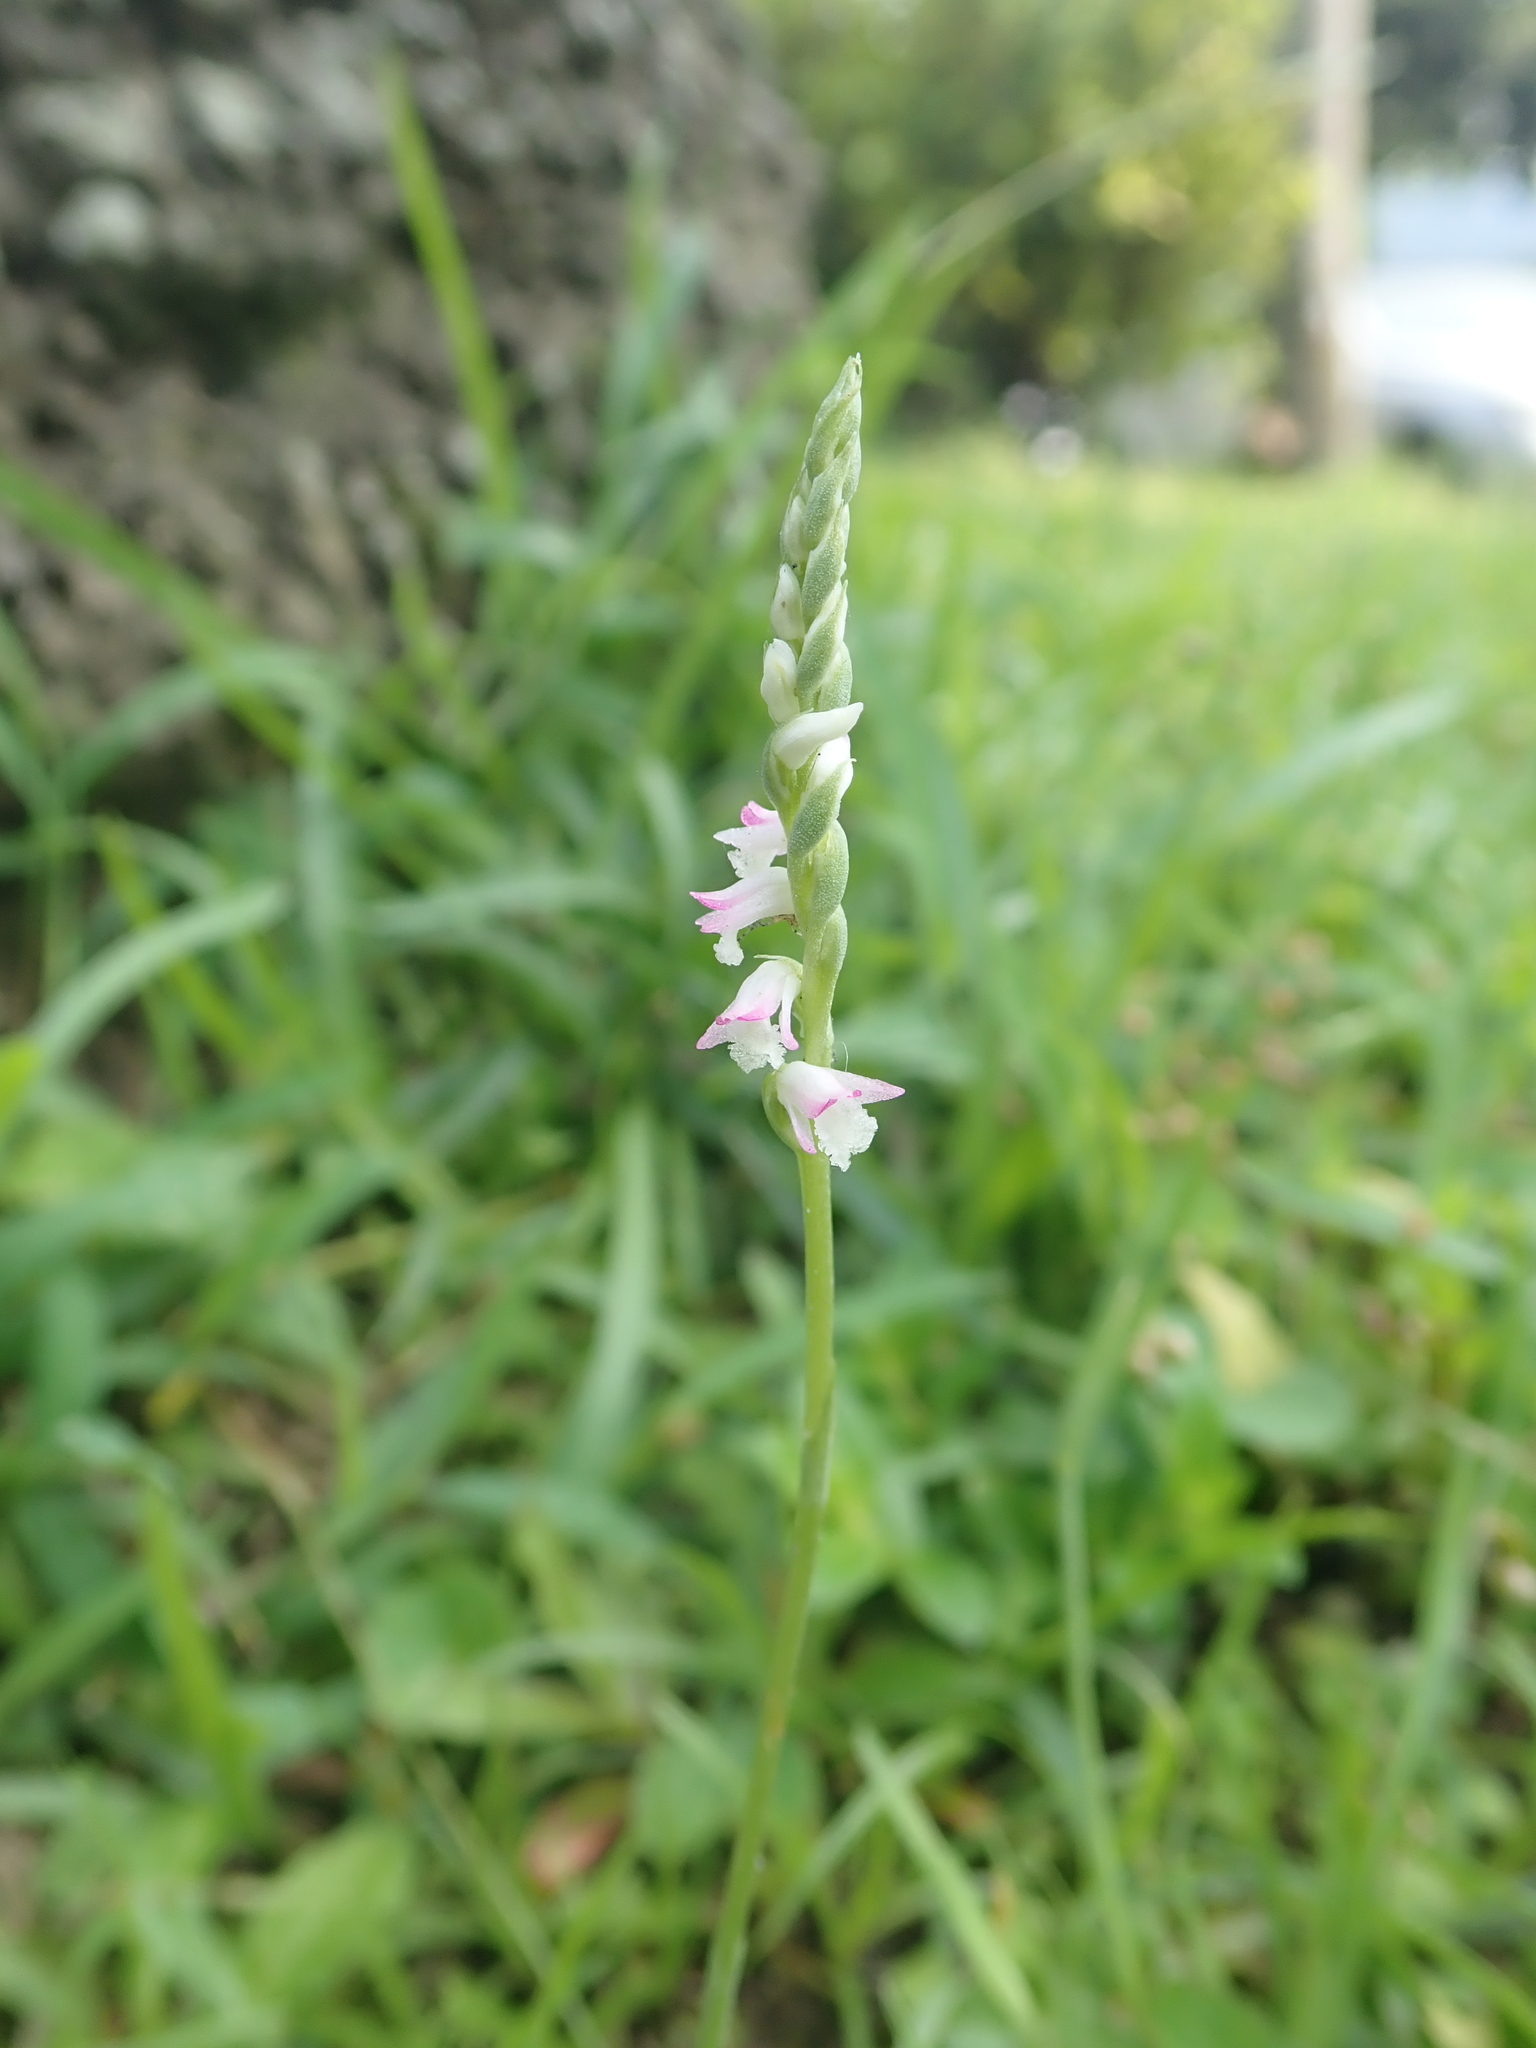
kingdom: Plantae
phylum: Tracheophyta
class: Liliopsida
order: Asparagales
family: Orchidaceae
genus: Spiranthes
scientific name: Spiranthes sinensis
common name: Chinese spiranthes
